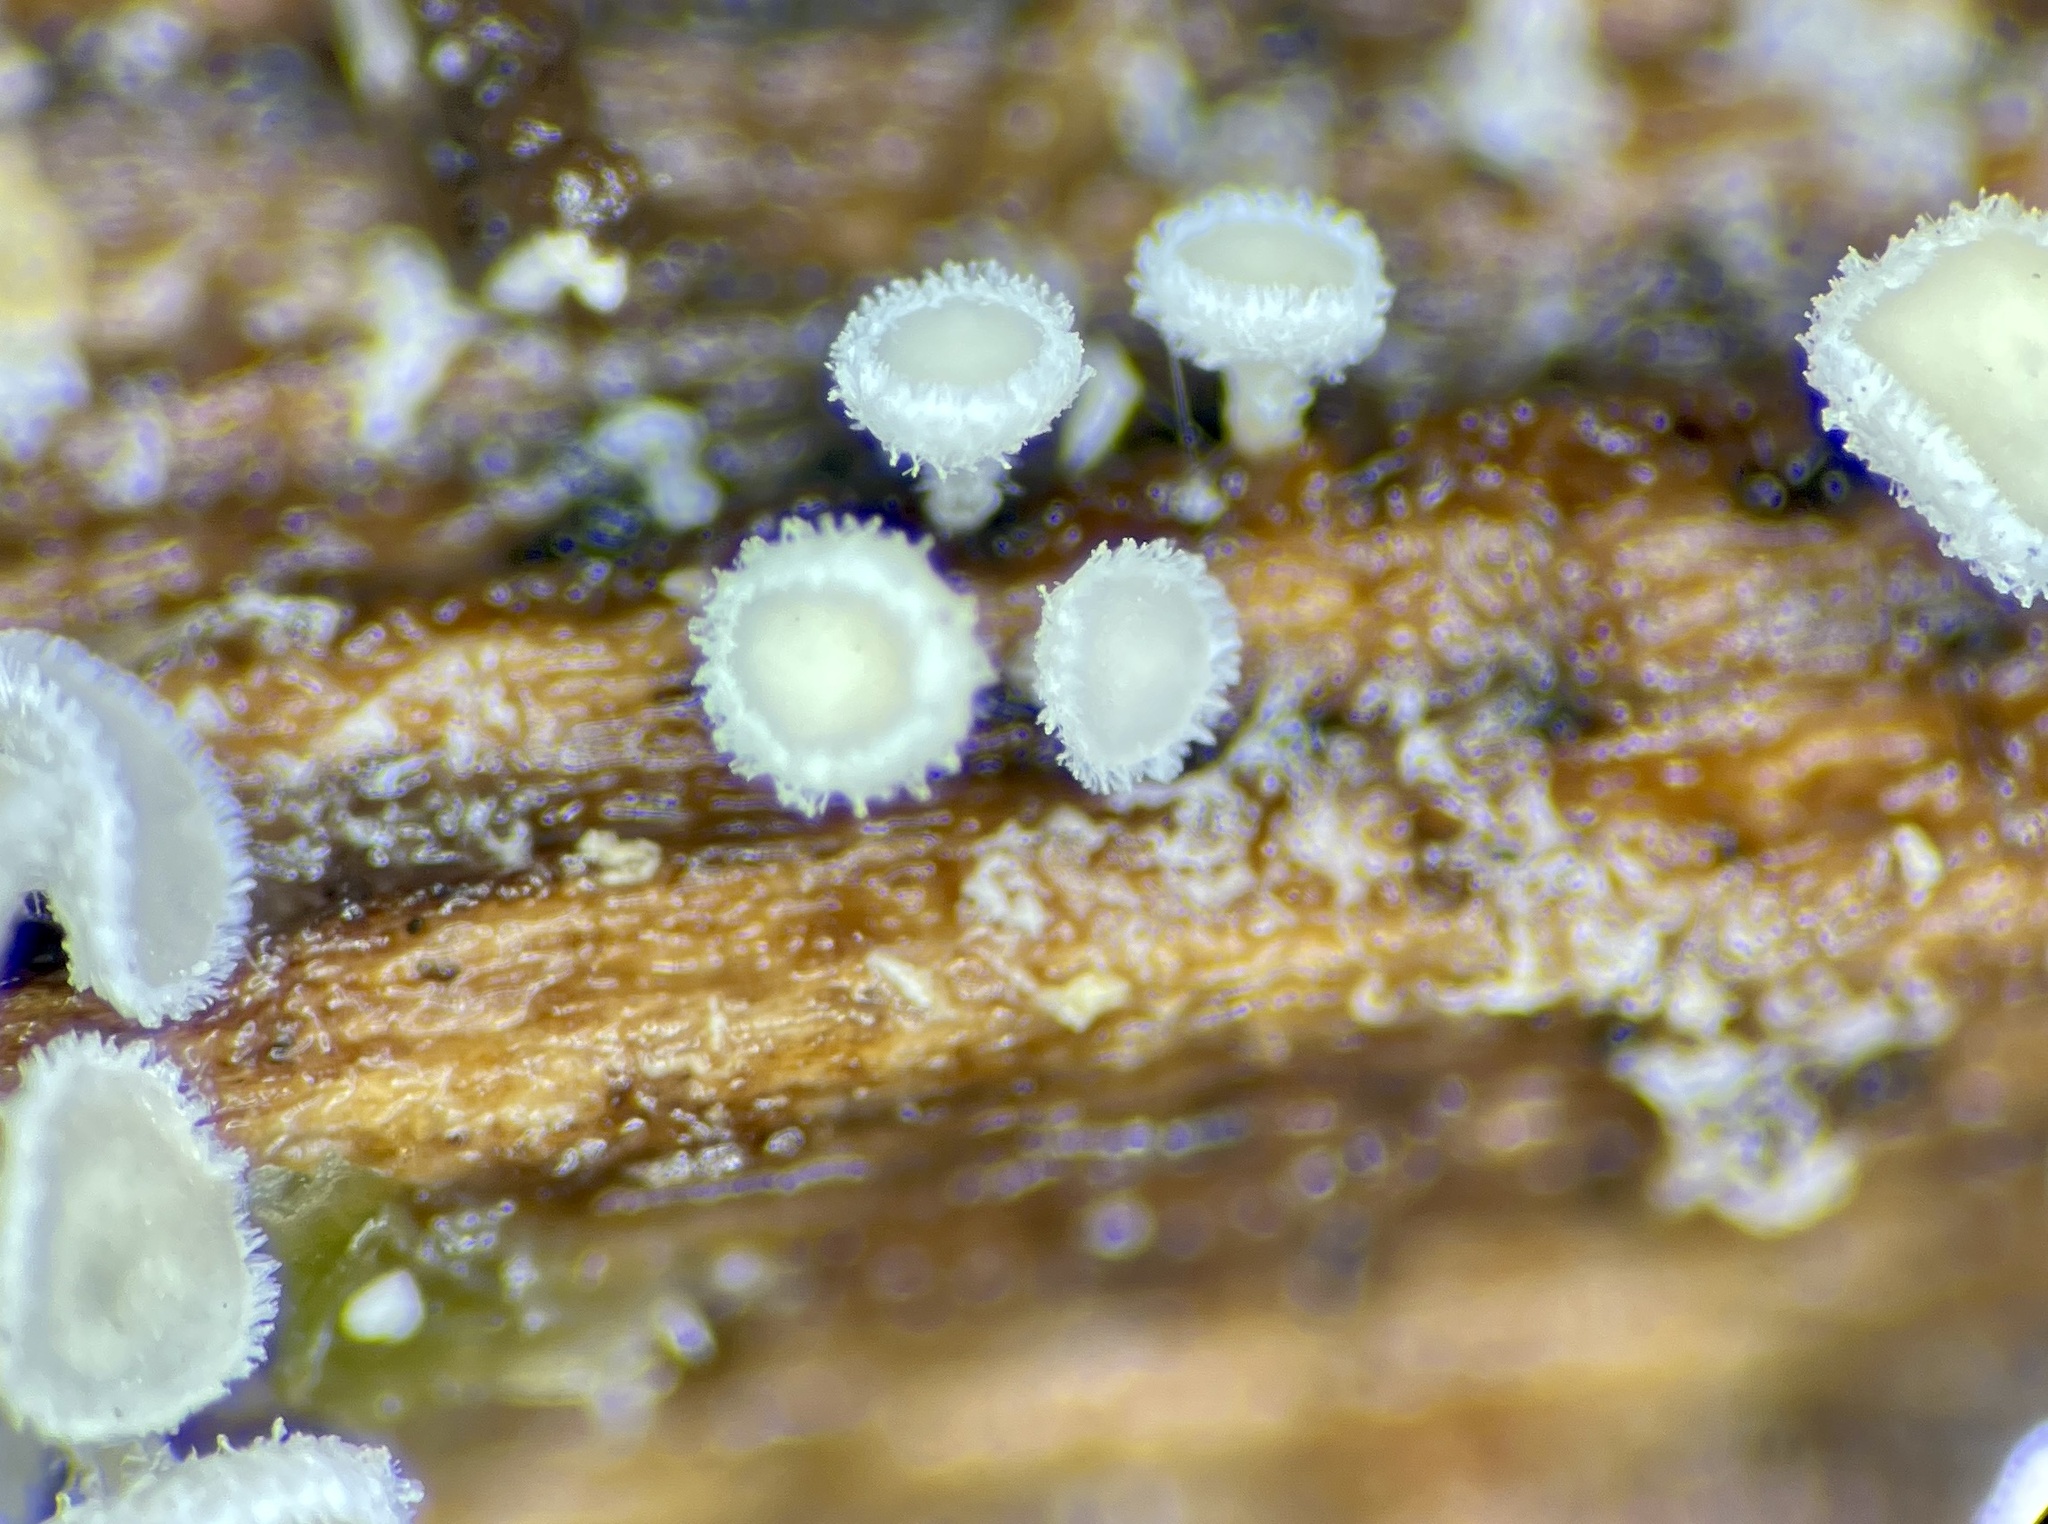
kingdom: Fungi
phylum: Ascomycota
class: Leotiomycetes
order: Helotiales
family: Lachnaceae
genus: Lachnum
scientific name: Lachnum virgineum
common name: Snowy disco
